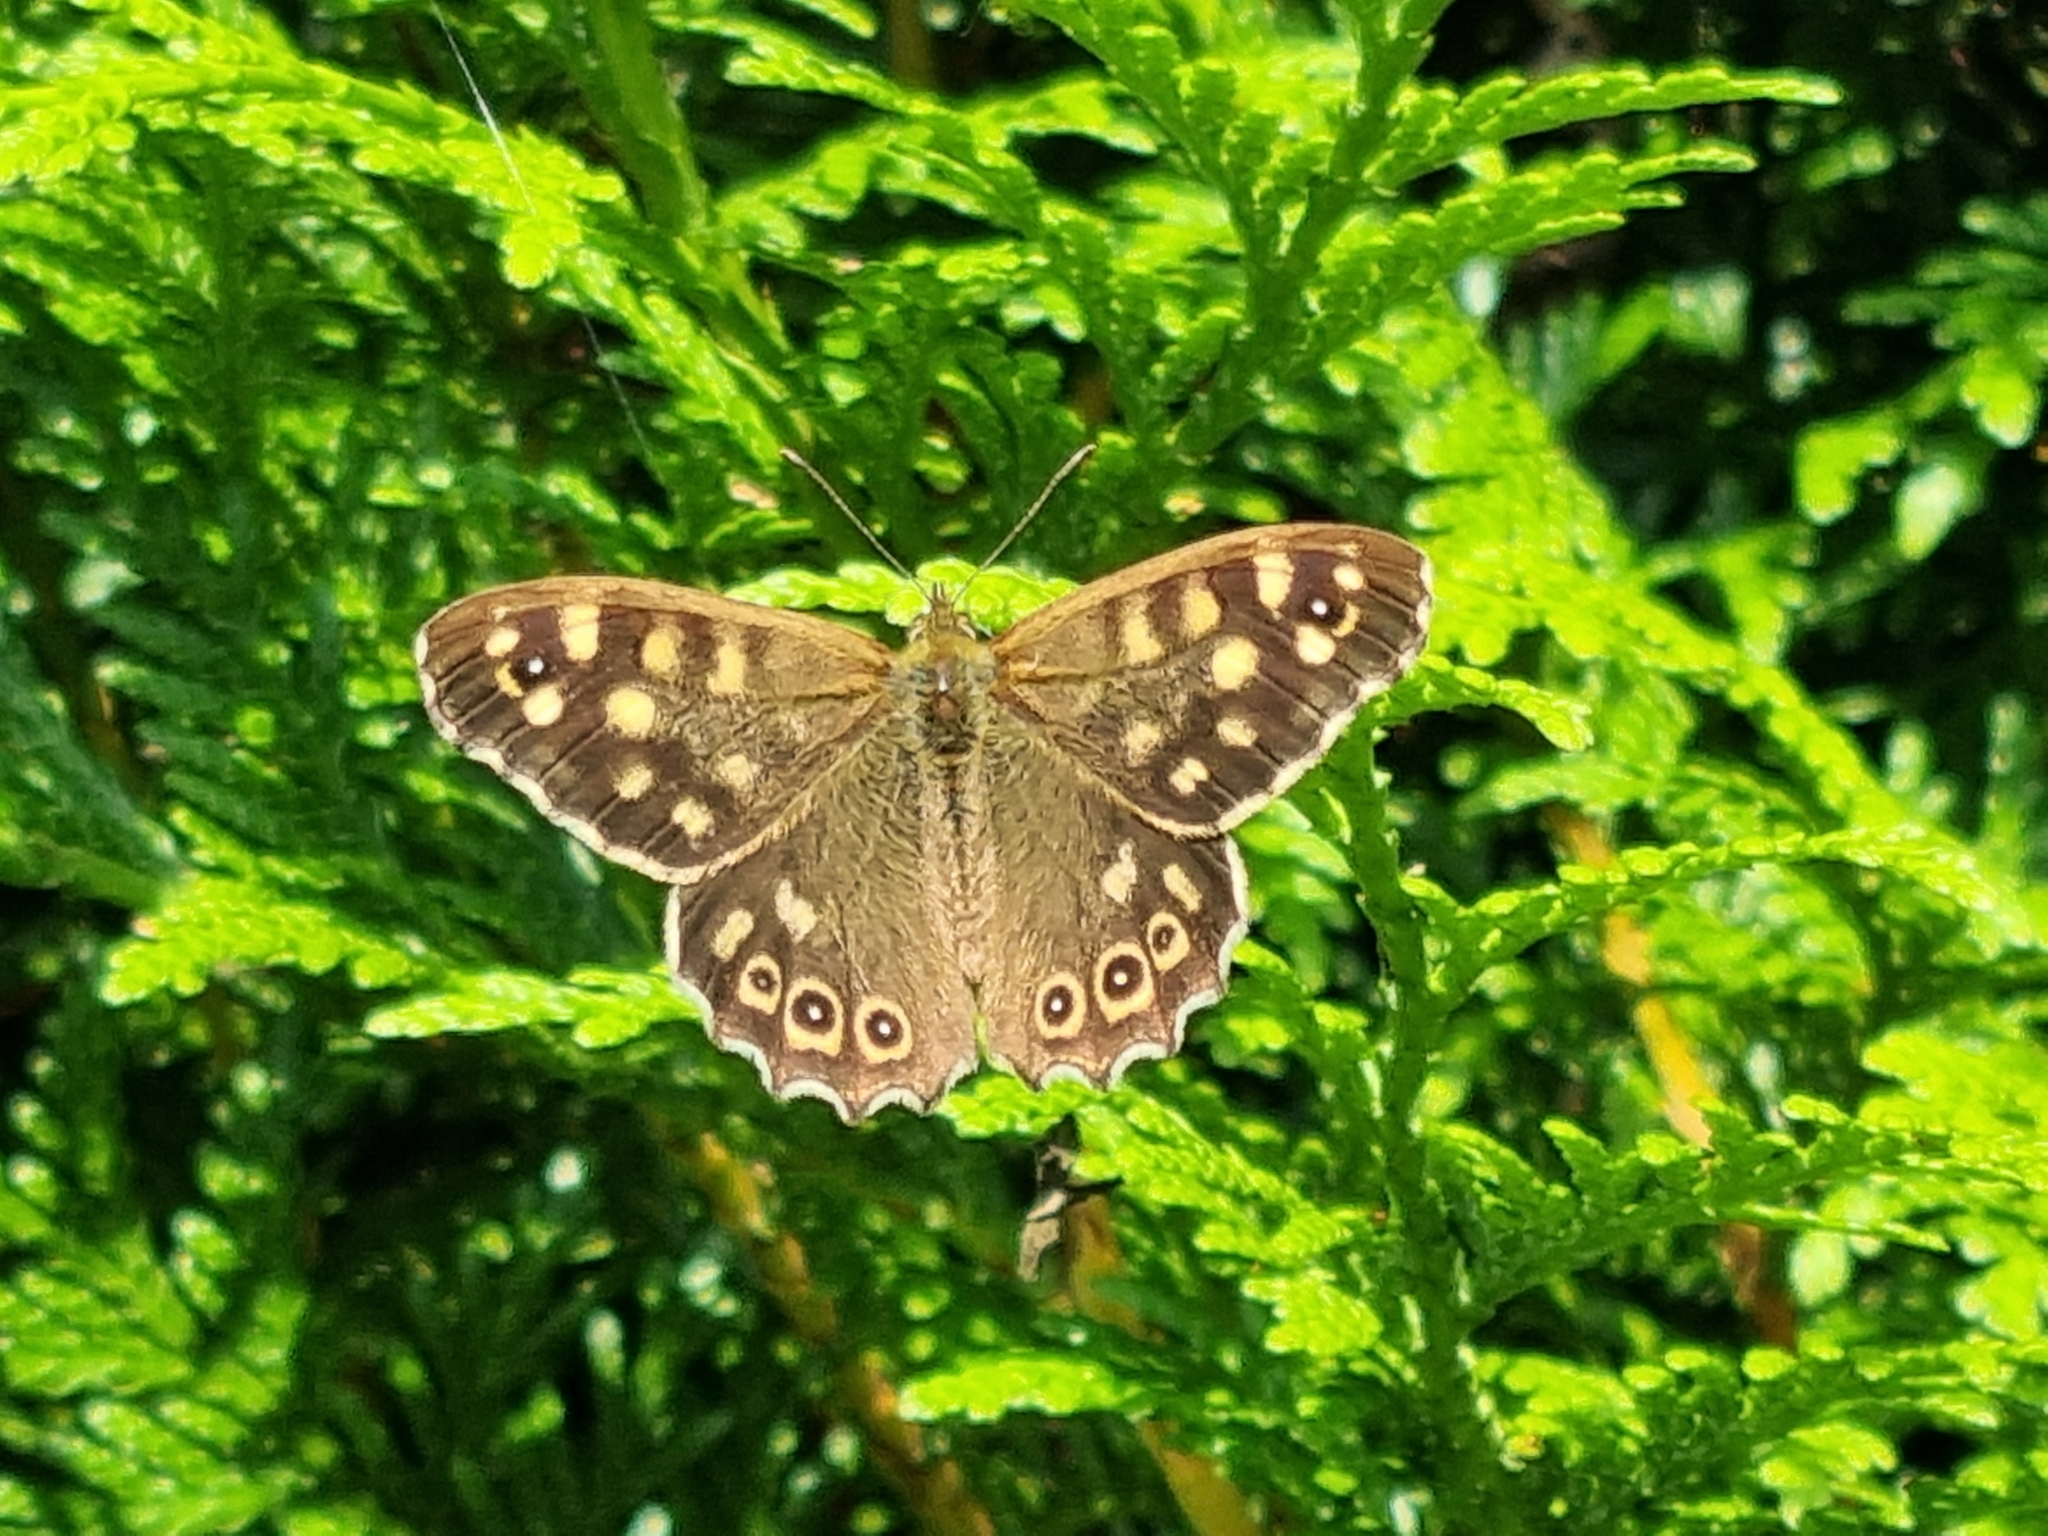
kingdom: Animalia
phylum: Arthropoda
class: Insecta
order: Lepidoptera
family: Nymphalidae
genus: Pararge
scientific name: Pararge aegeria
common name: Speckled wood
